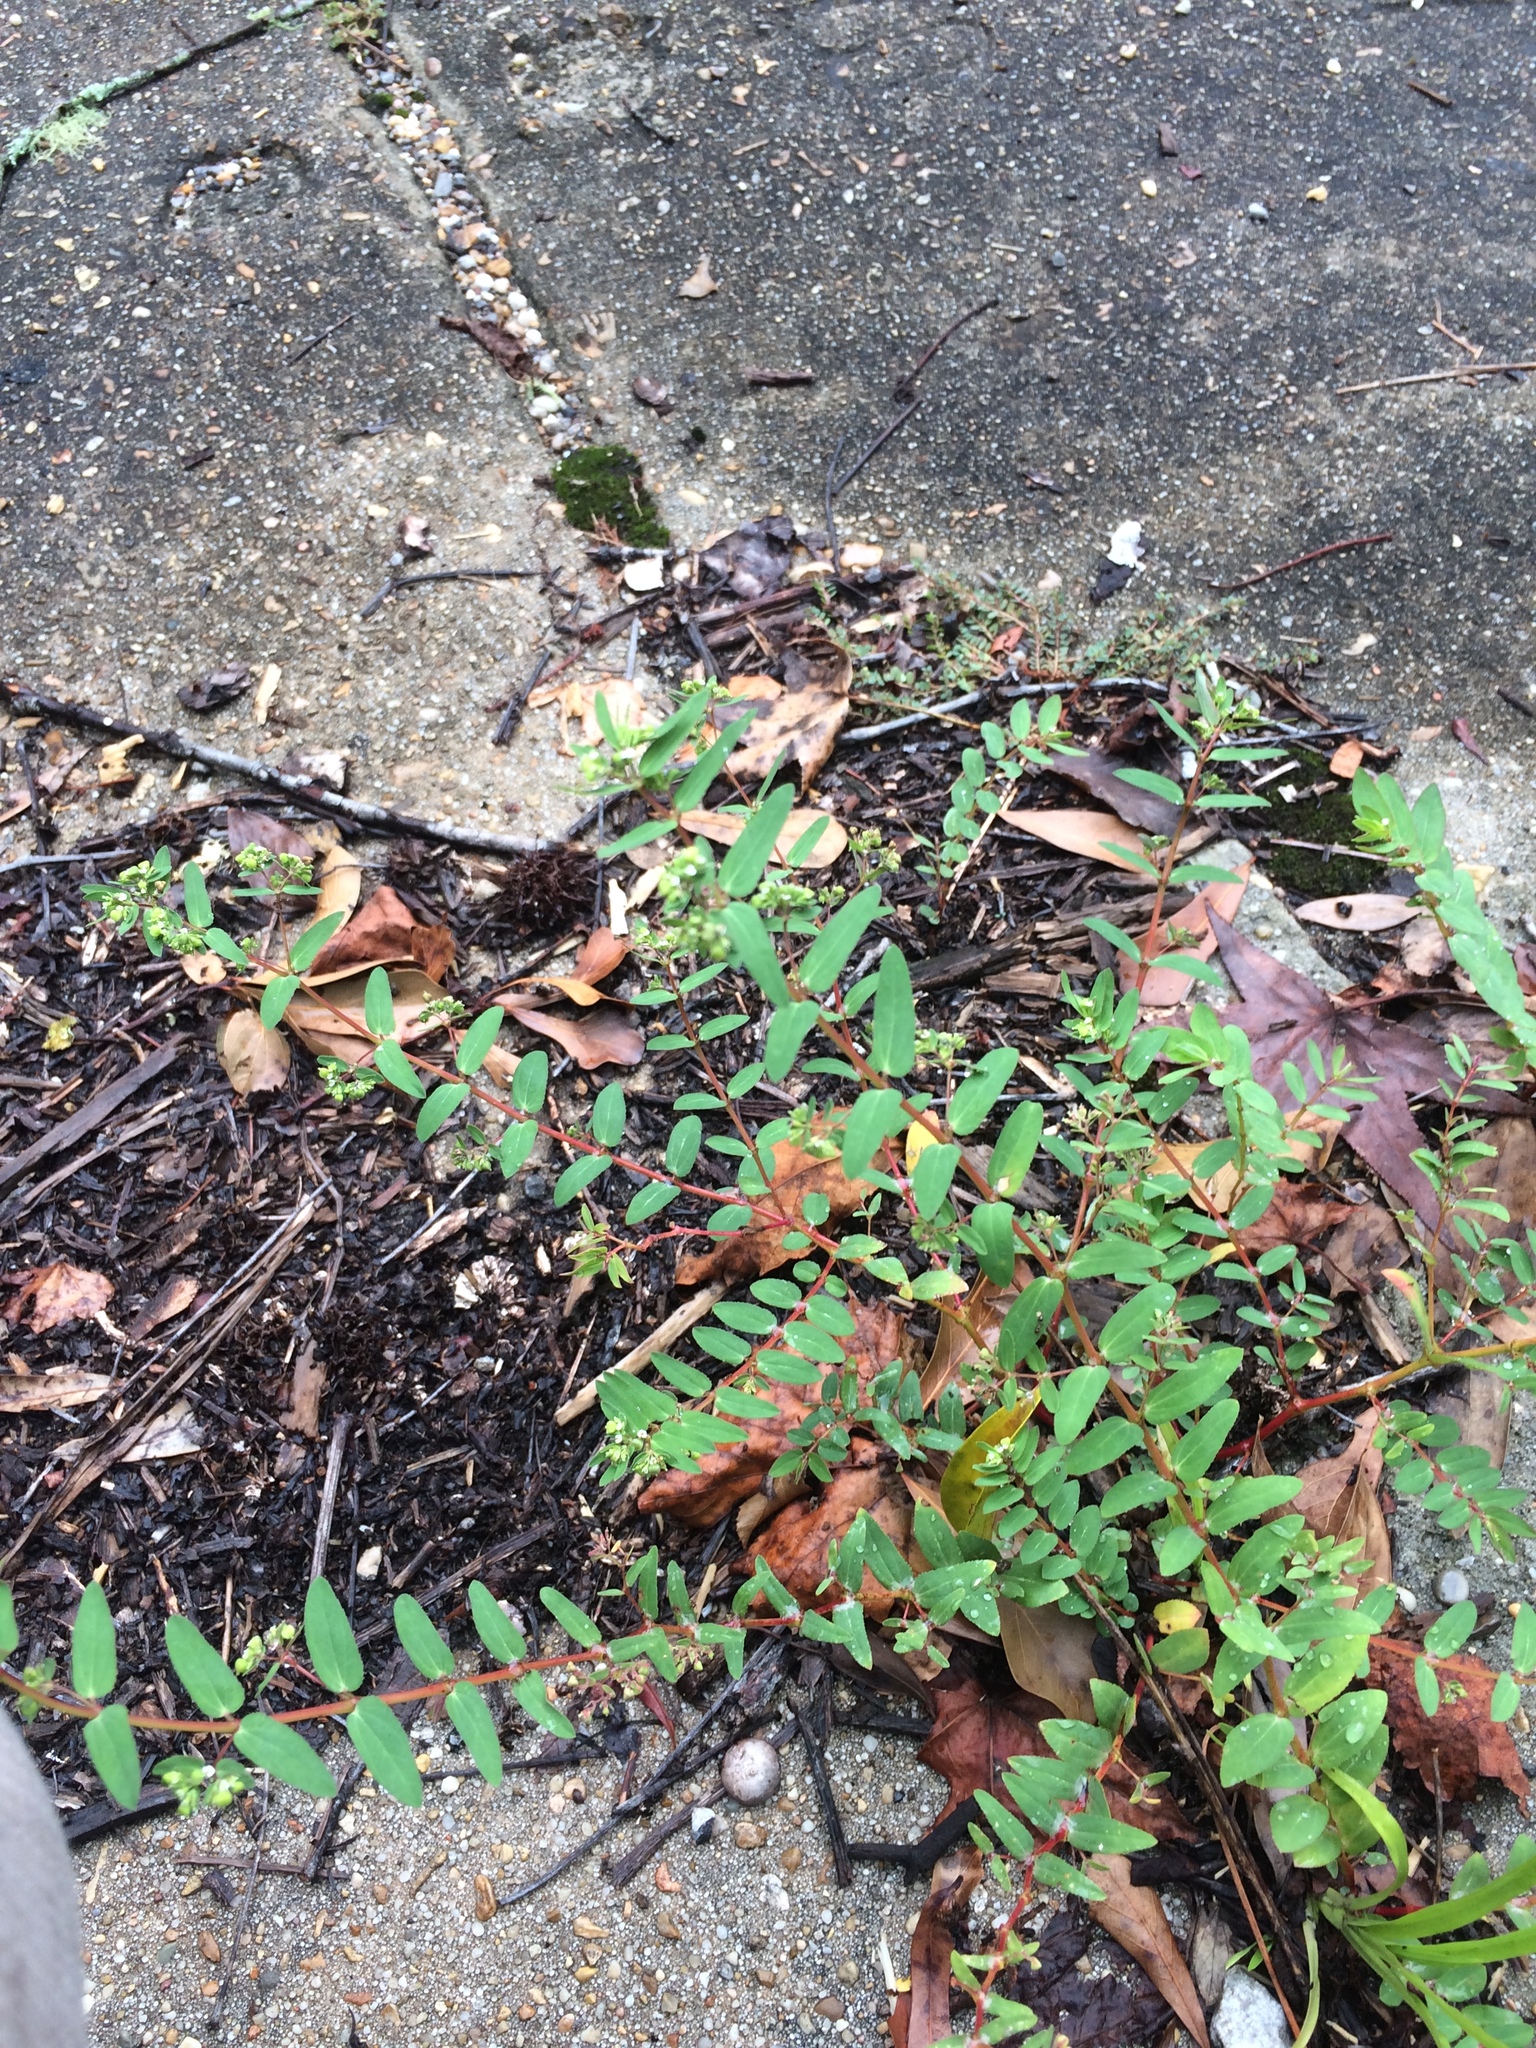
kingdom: Plantae
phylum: Tracheophyta
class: Magnoliopsida
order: Malpighiales
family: Euphorbiaceae
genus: Euphorbia
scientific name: Euphorbia hyssopifolia
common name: Hyssopleaf sandmat
